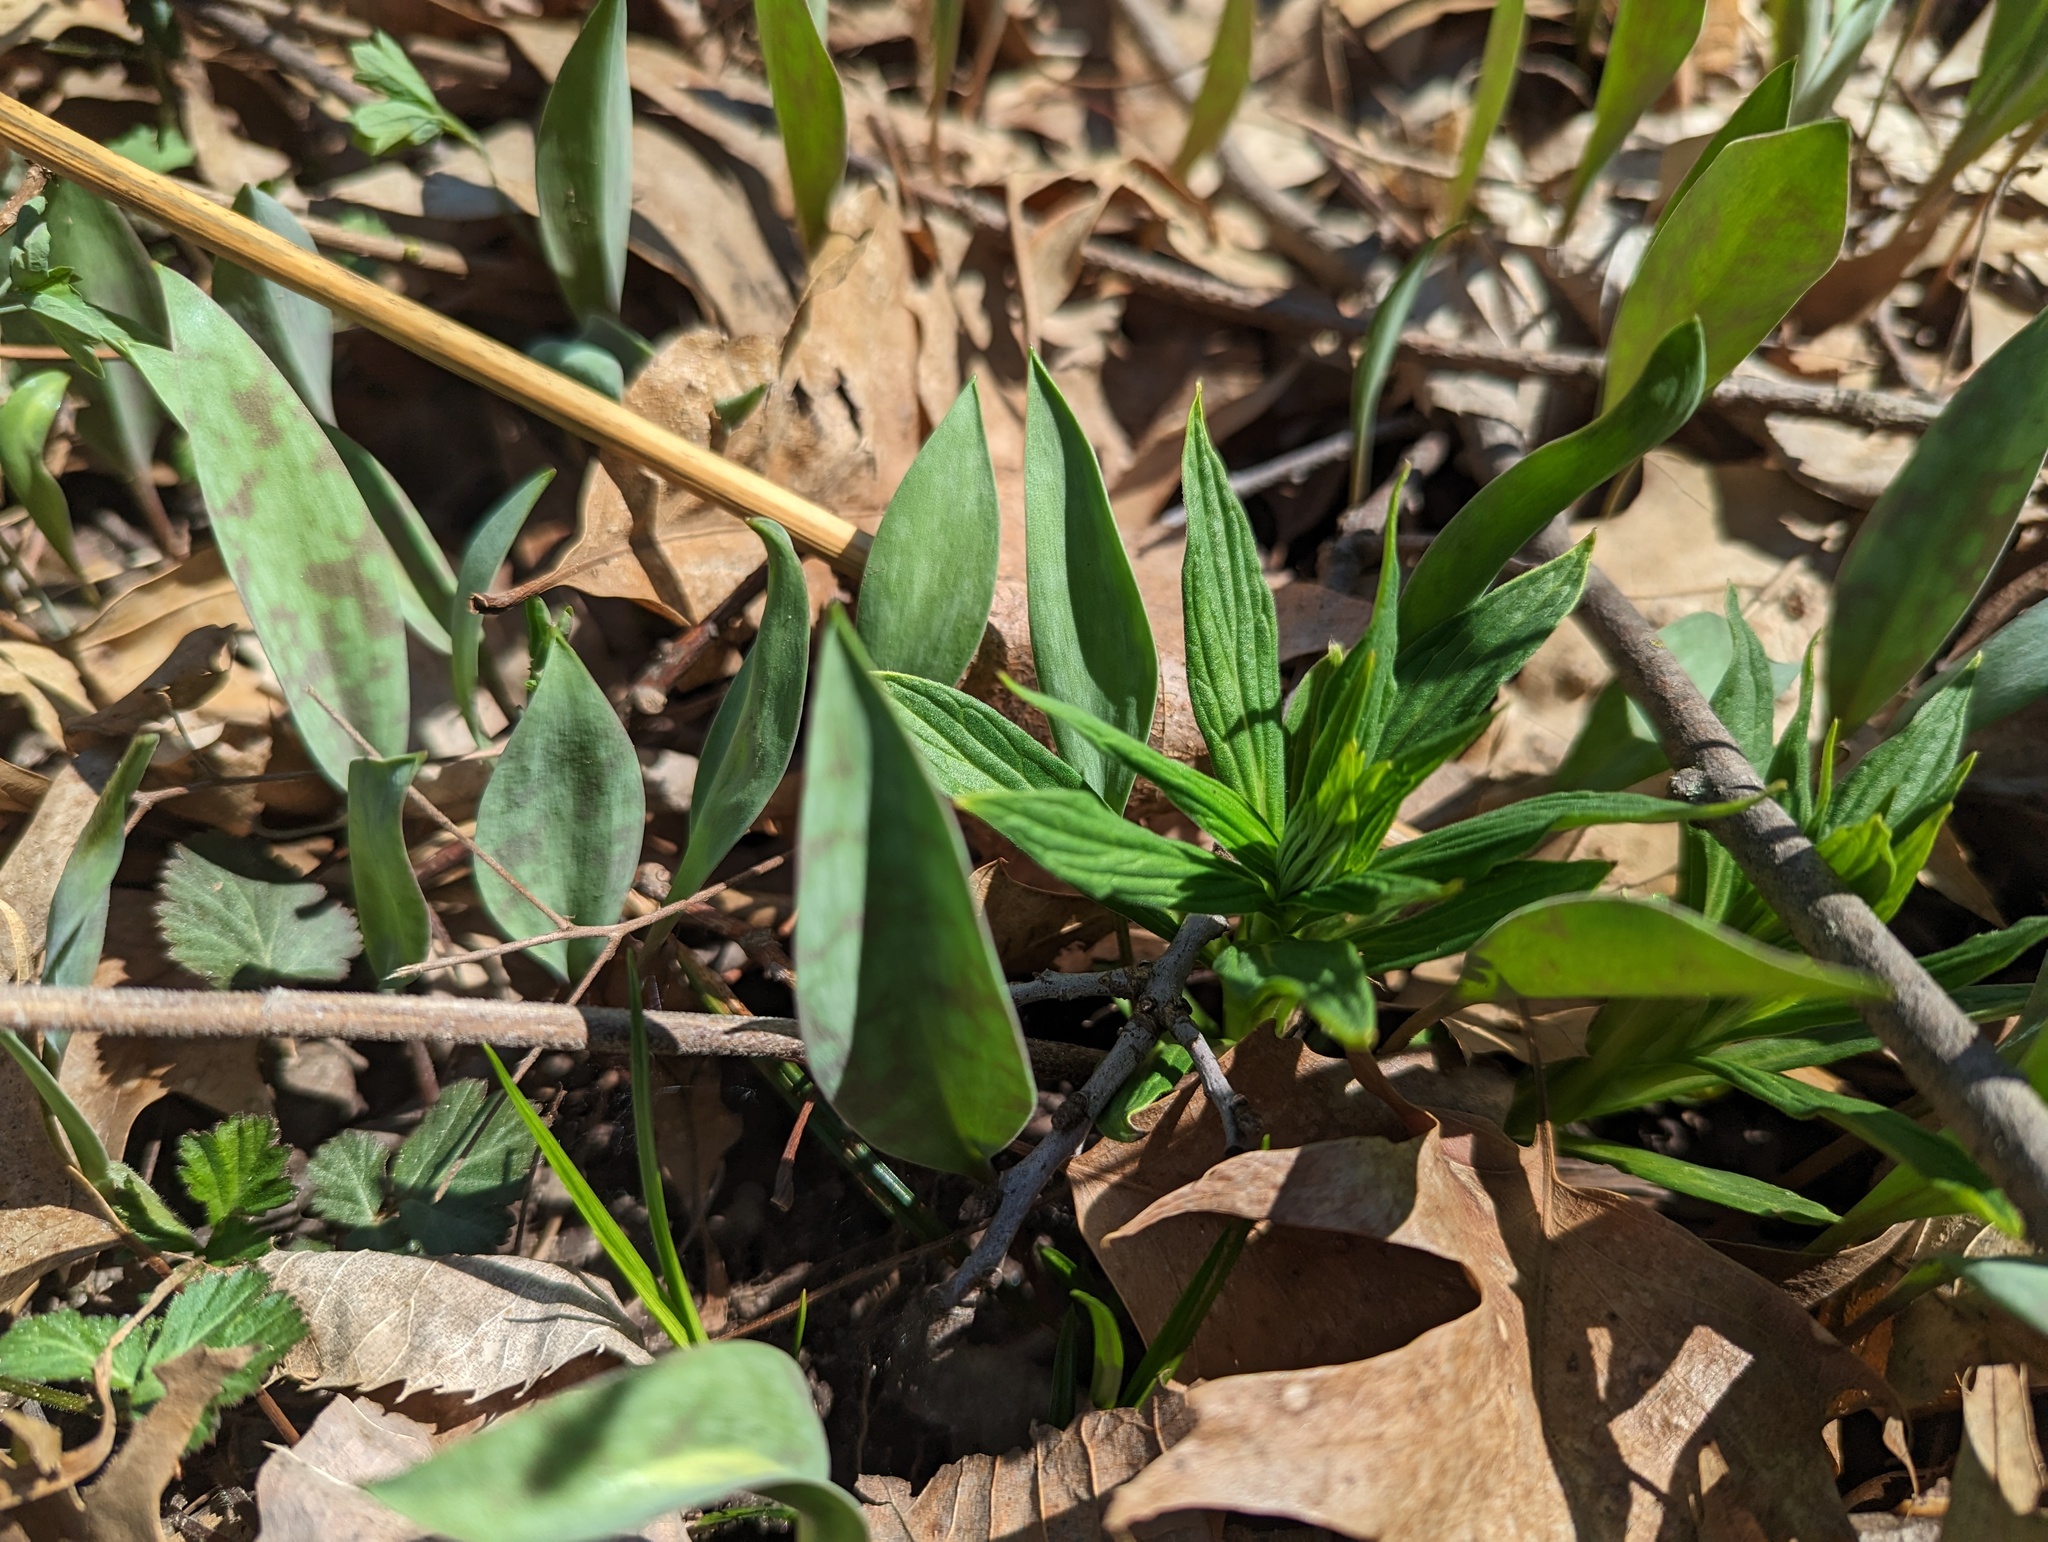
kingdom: Plantae
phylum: Tracheophyta
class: Magnoliopsida
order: Boraginales
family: Boraginaceae
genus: Lithospermum
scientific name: Lithospermum latifolium
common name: American gromwell
